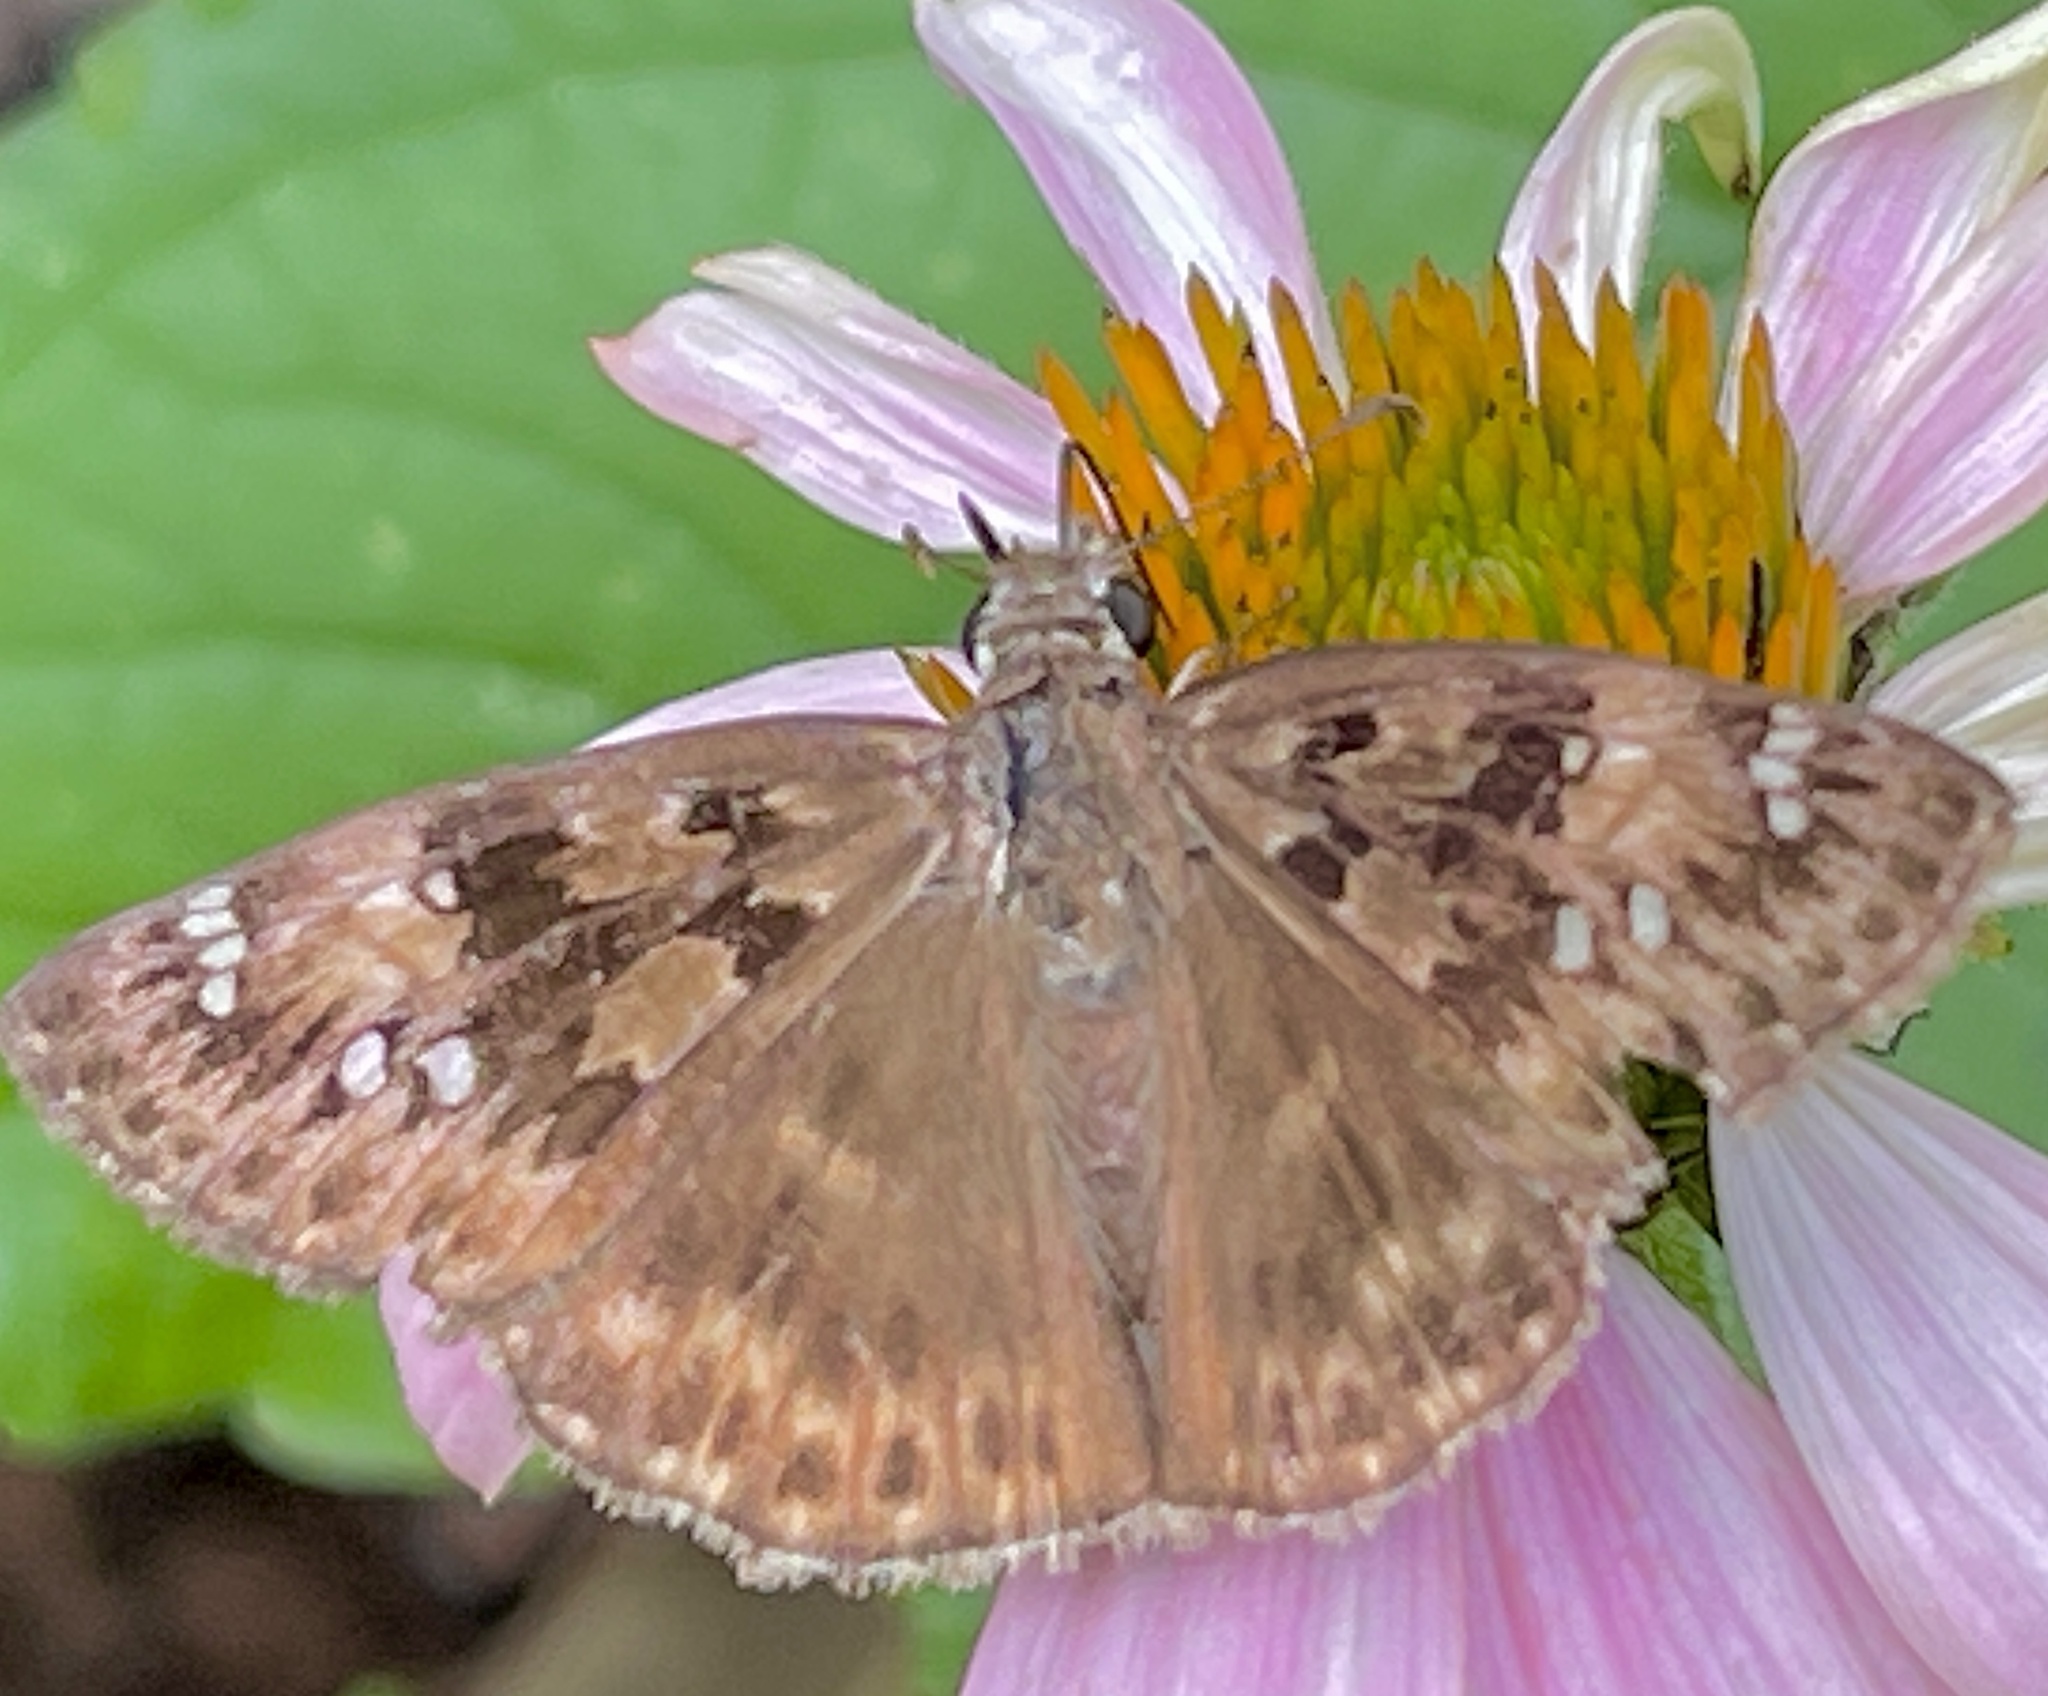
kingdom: Animalia
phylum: Arthropoda
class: Insecta
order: Lepidoptera
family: Hesperiidae
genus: Erynnis
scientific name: Erynnis horatius
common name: Horace's duskywing
